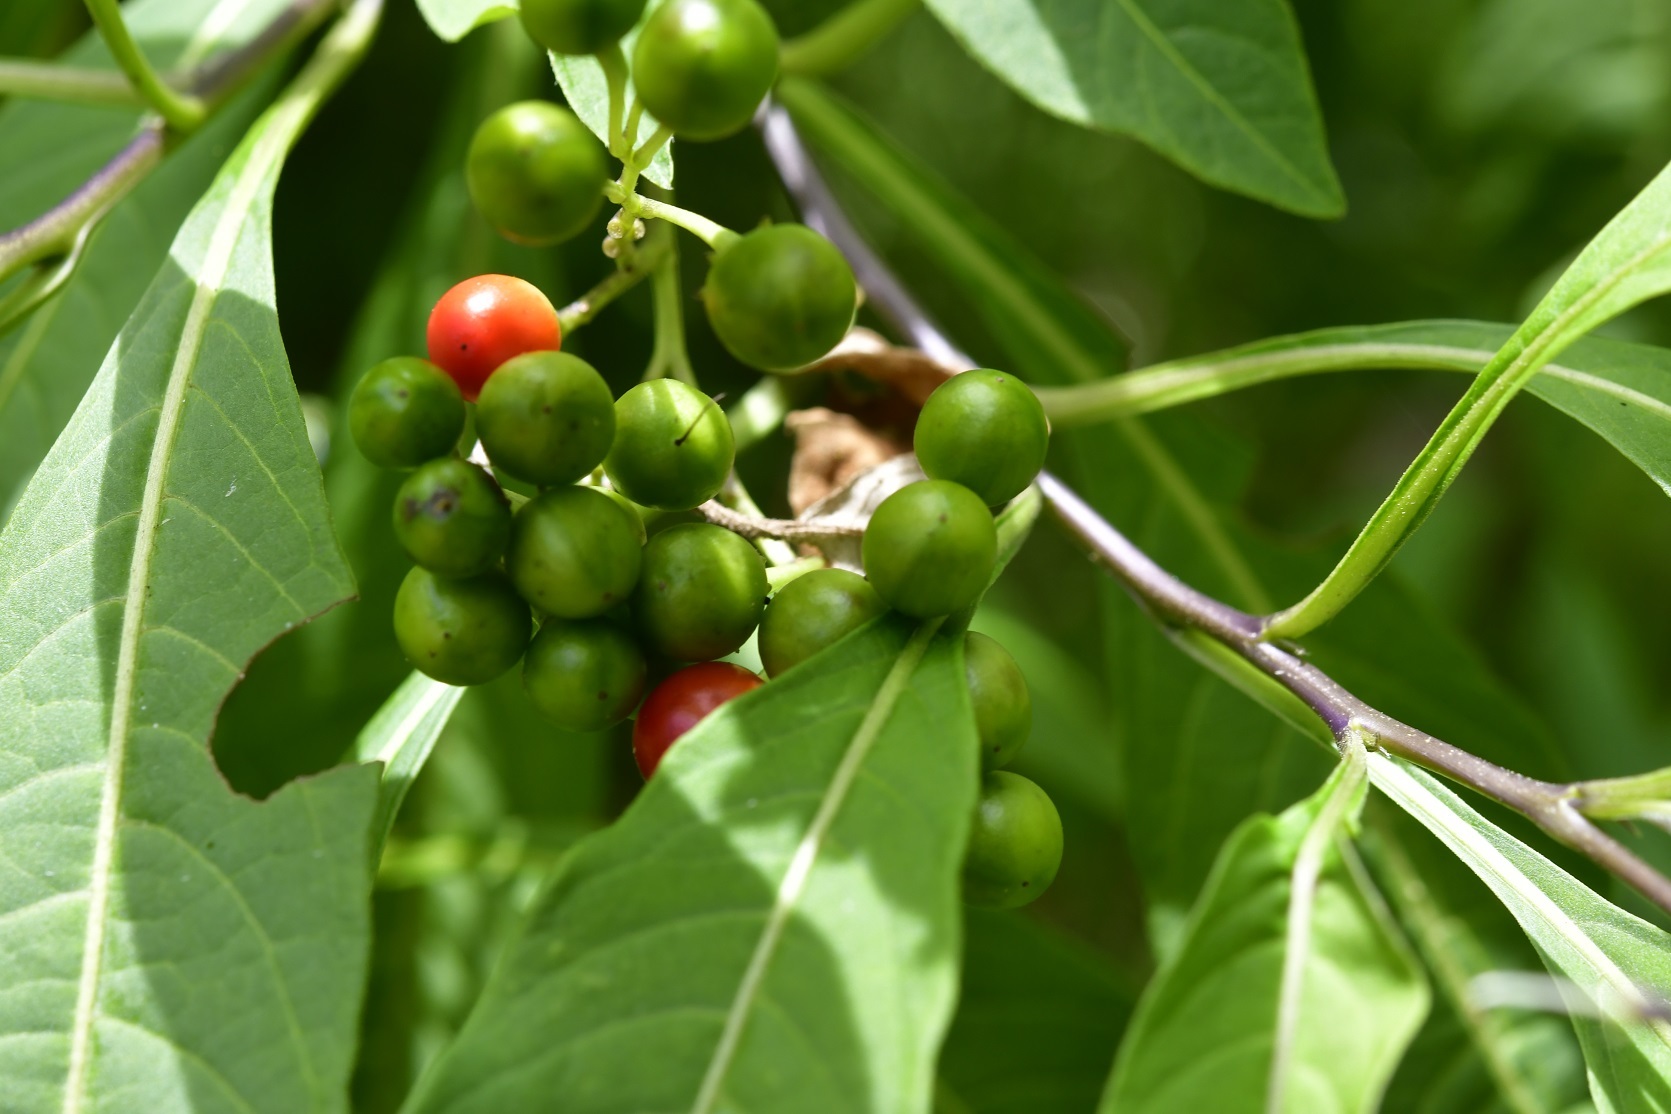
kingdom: Plantae
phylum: Tracheophyta
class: Magnoliopsida
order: Solanales
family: Solanaceae
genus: Solanum
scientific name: Solanum pubigerum
